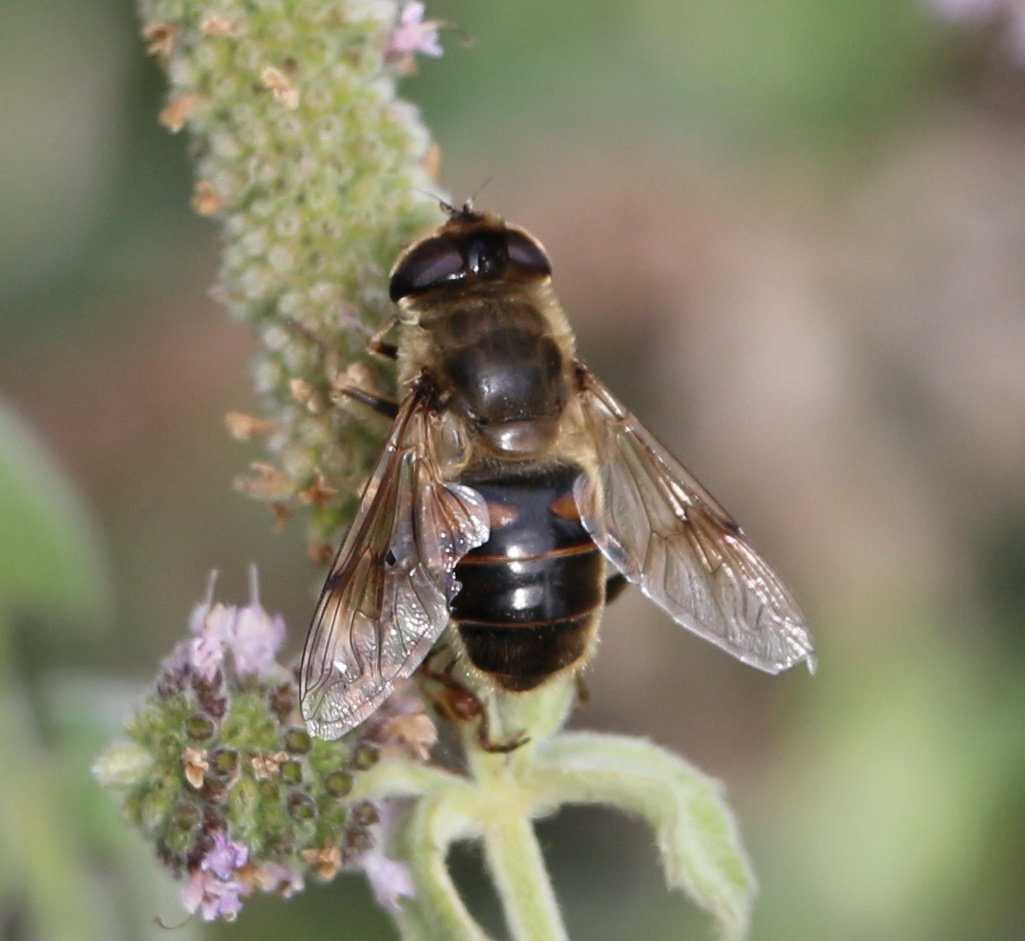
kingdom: Animalia
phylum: Arthropoda
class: Insecta
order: Diptera
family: Syrphidae
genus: Eristalis
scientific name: Eristalis tenax
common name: Drone fly
